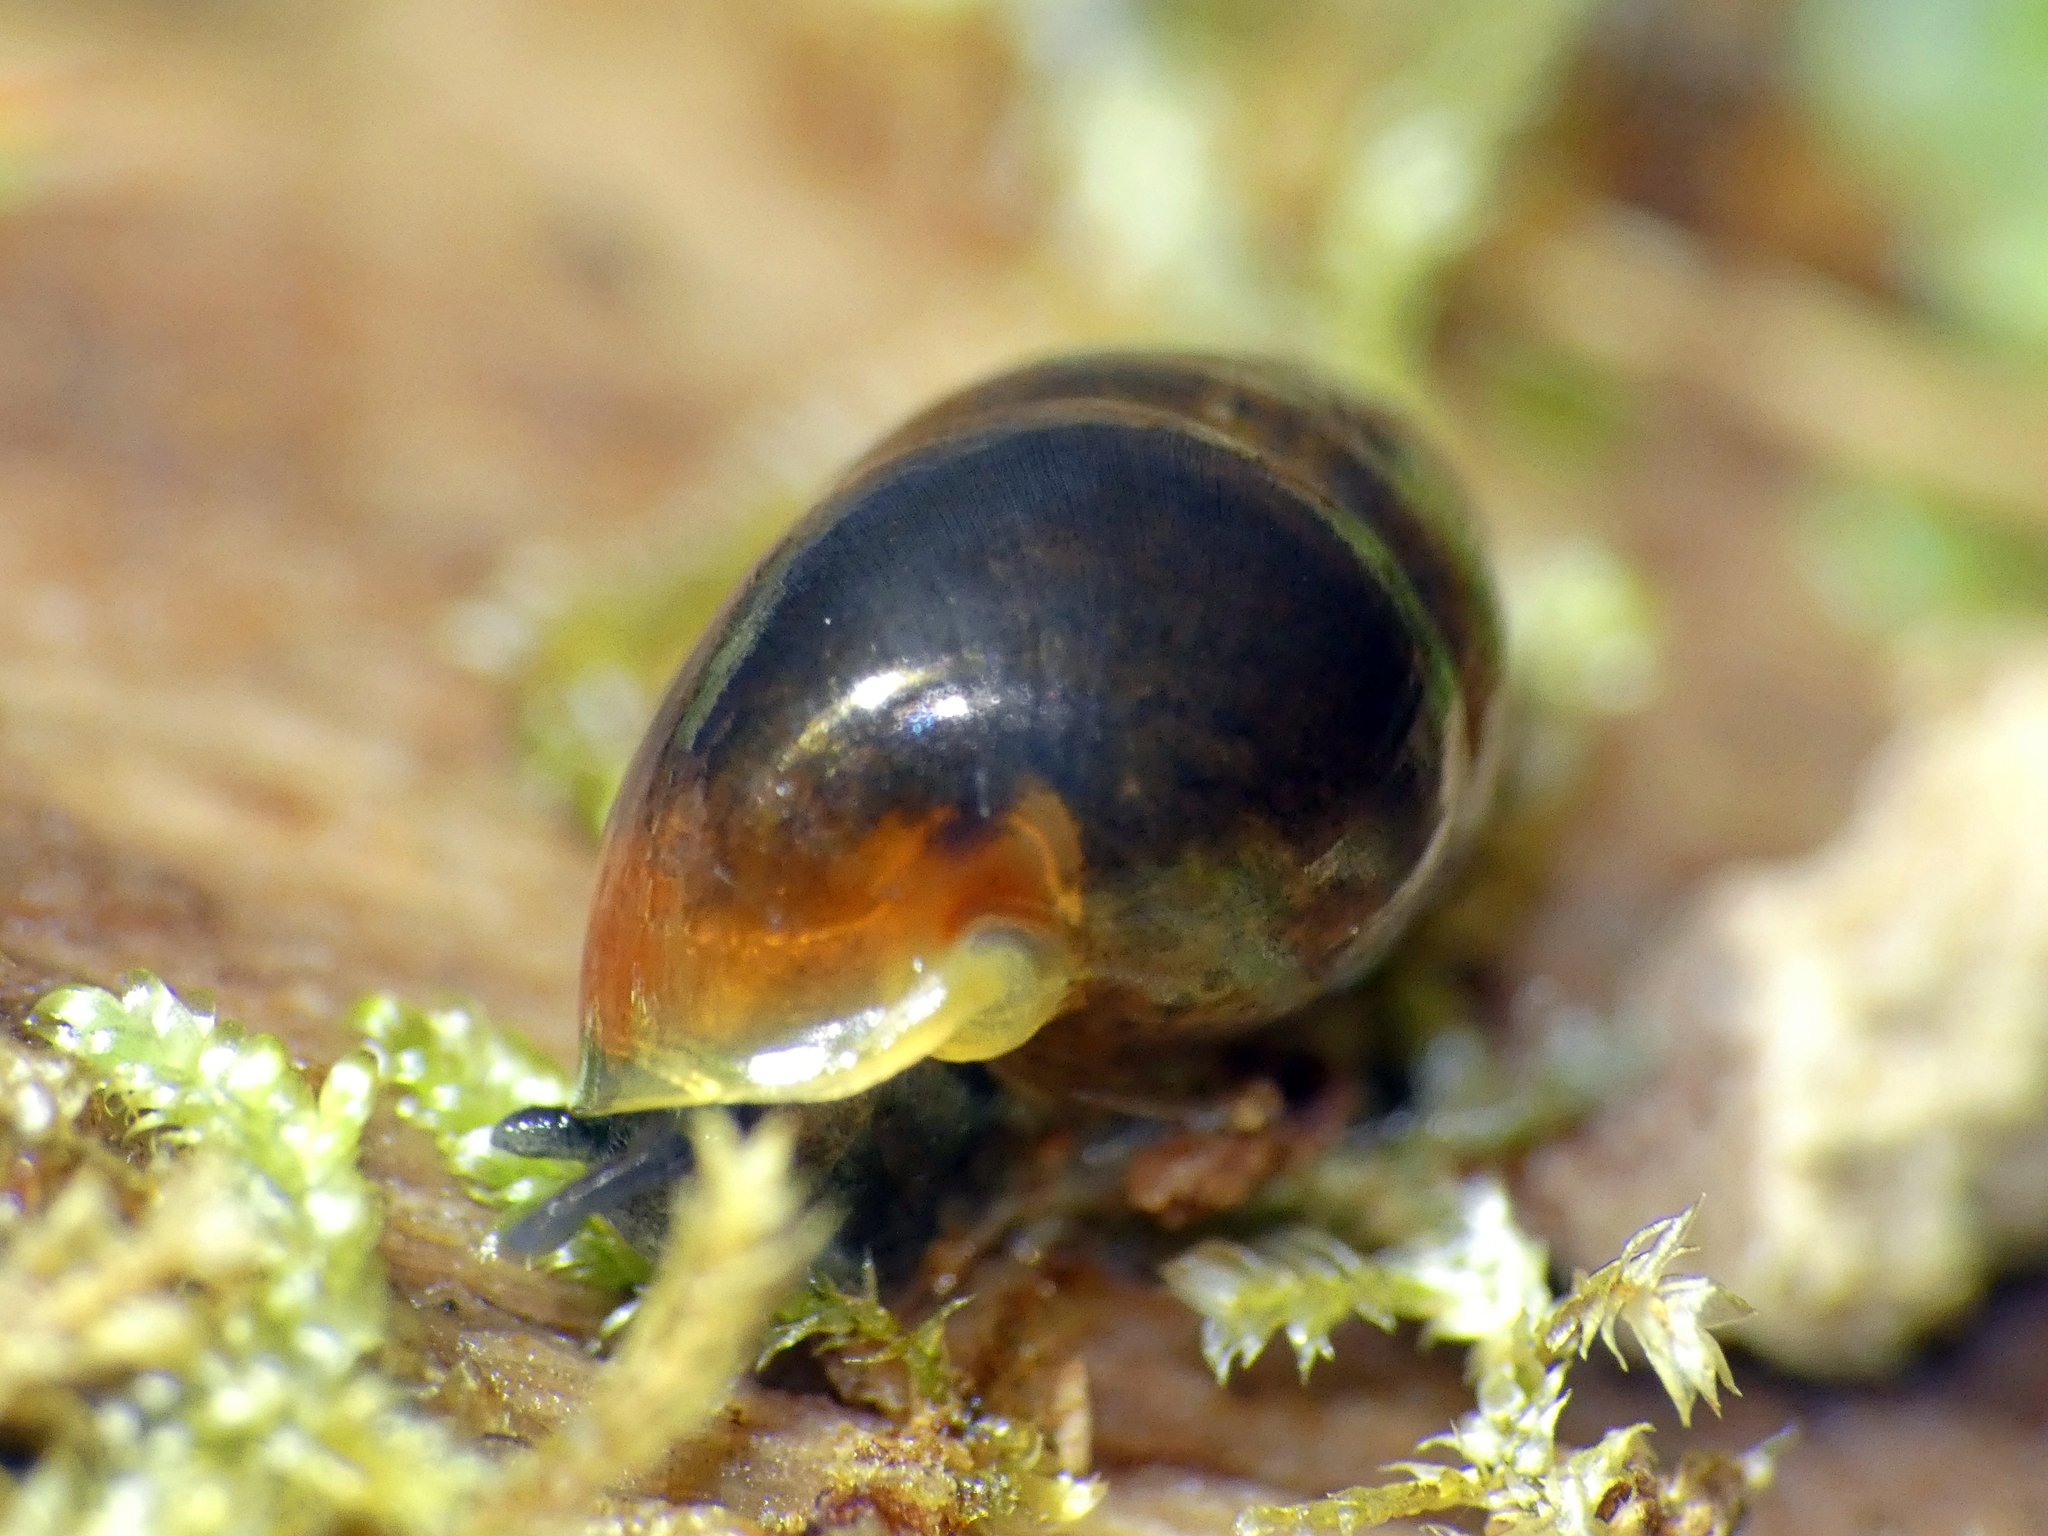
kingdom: Animalia
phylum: Mollusca
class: Gastropoda
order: Architaenioglossa
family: Pupinidae
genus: Signepupina
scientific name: Signepupina rubiflava
